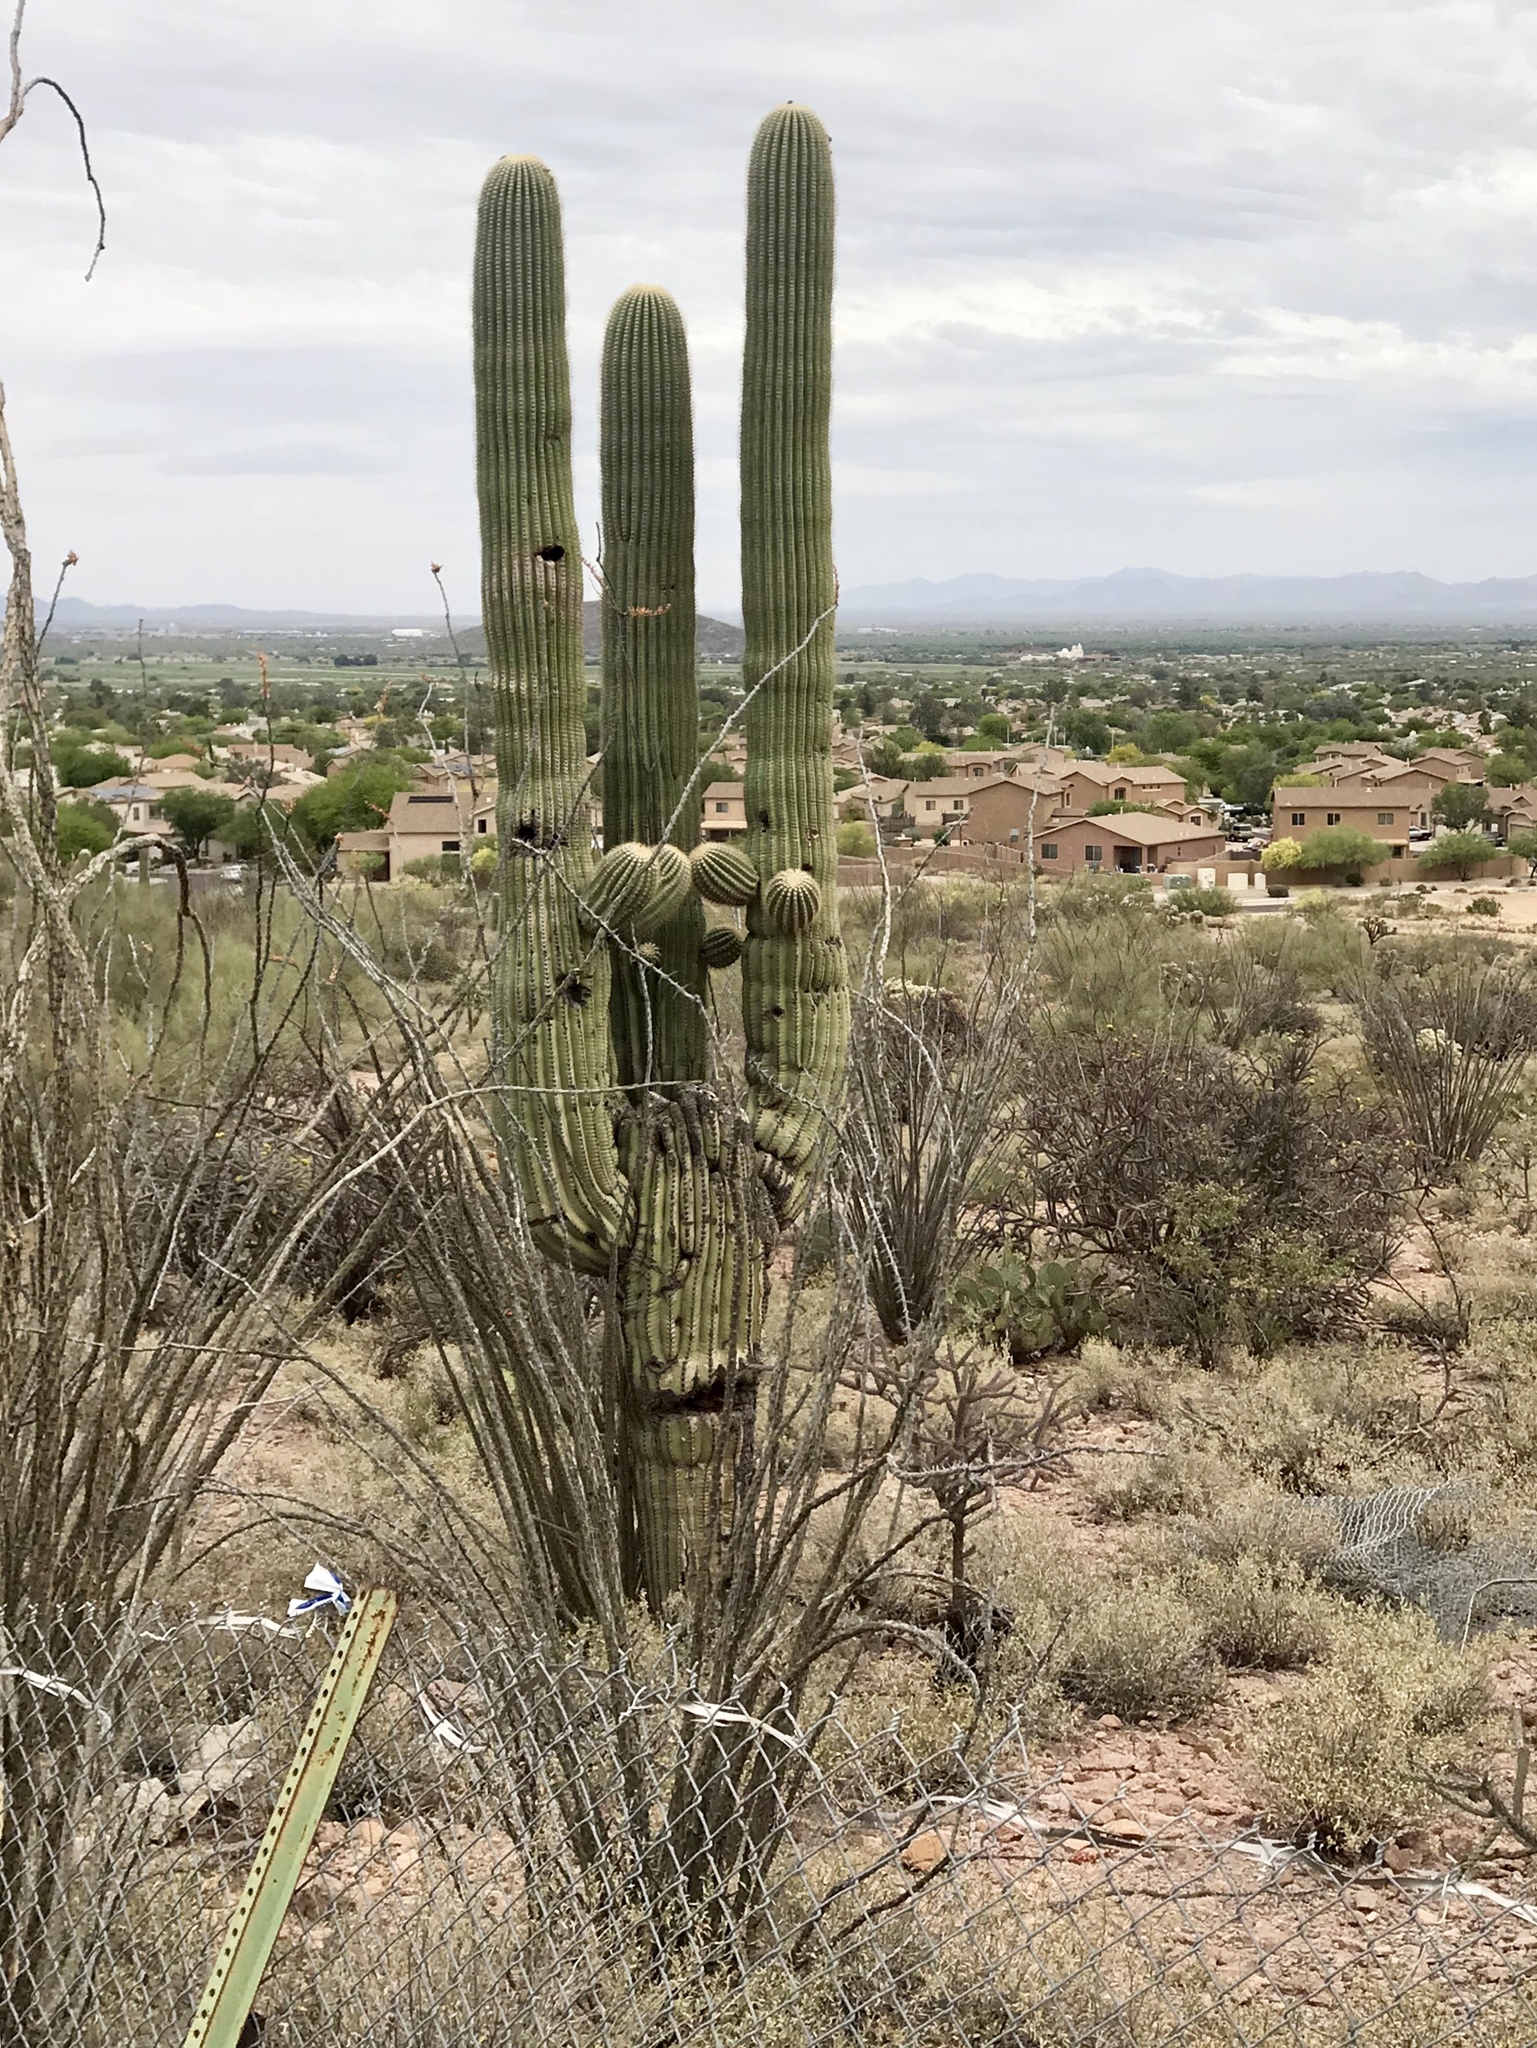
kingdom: Plantae
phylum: Tracheophyta
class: Magnoliopsida
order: Caryophyllales
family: Cactaceae
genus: Carnegiea
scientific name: Carnegiea gigantea
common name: Saguaro
